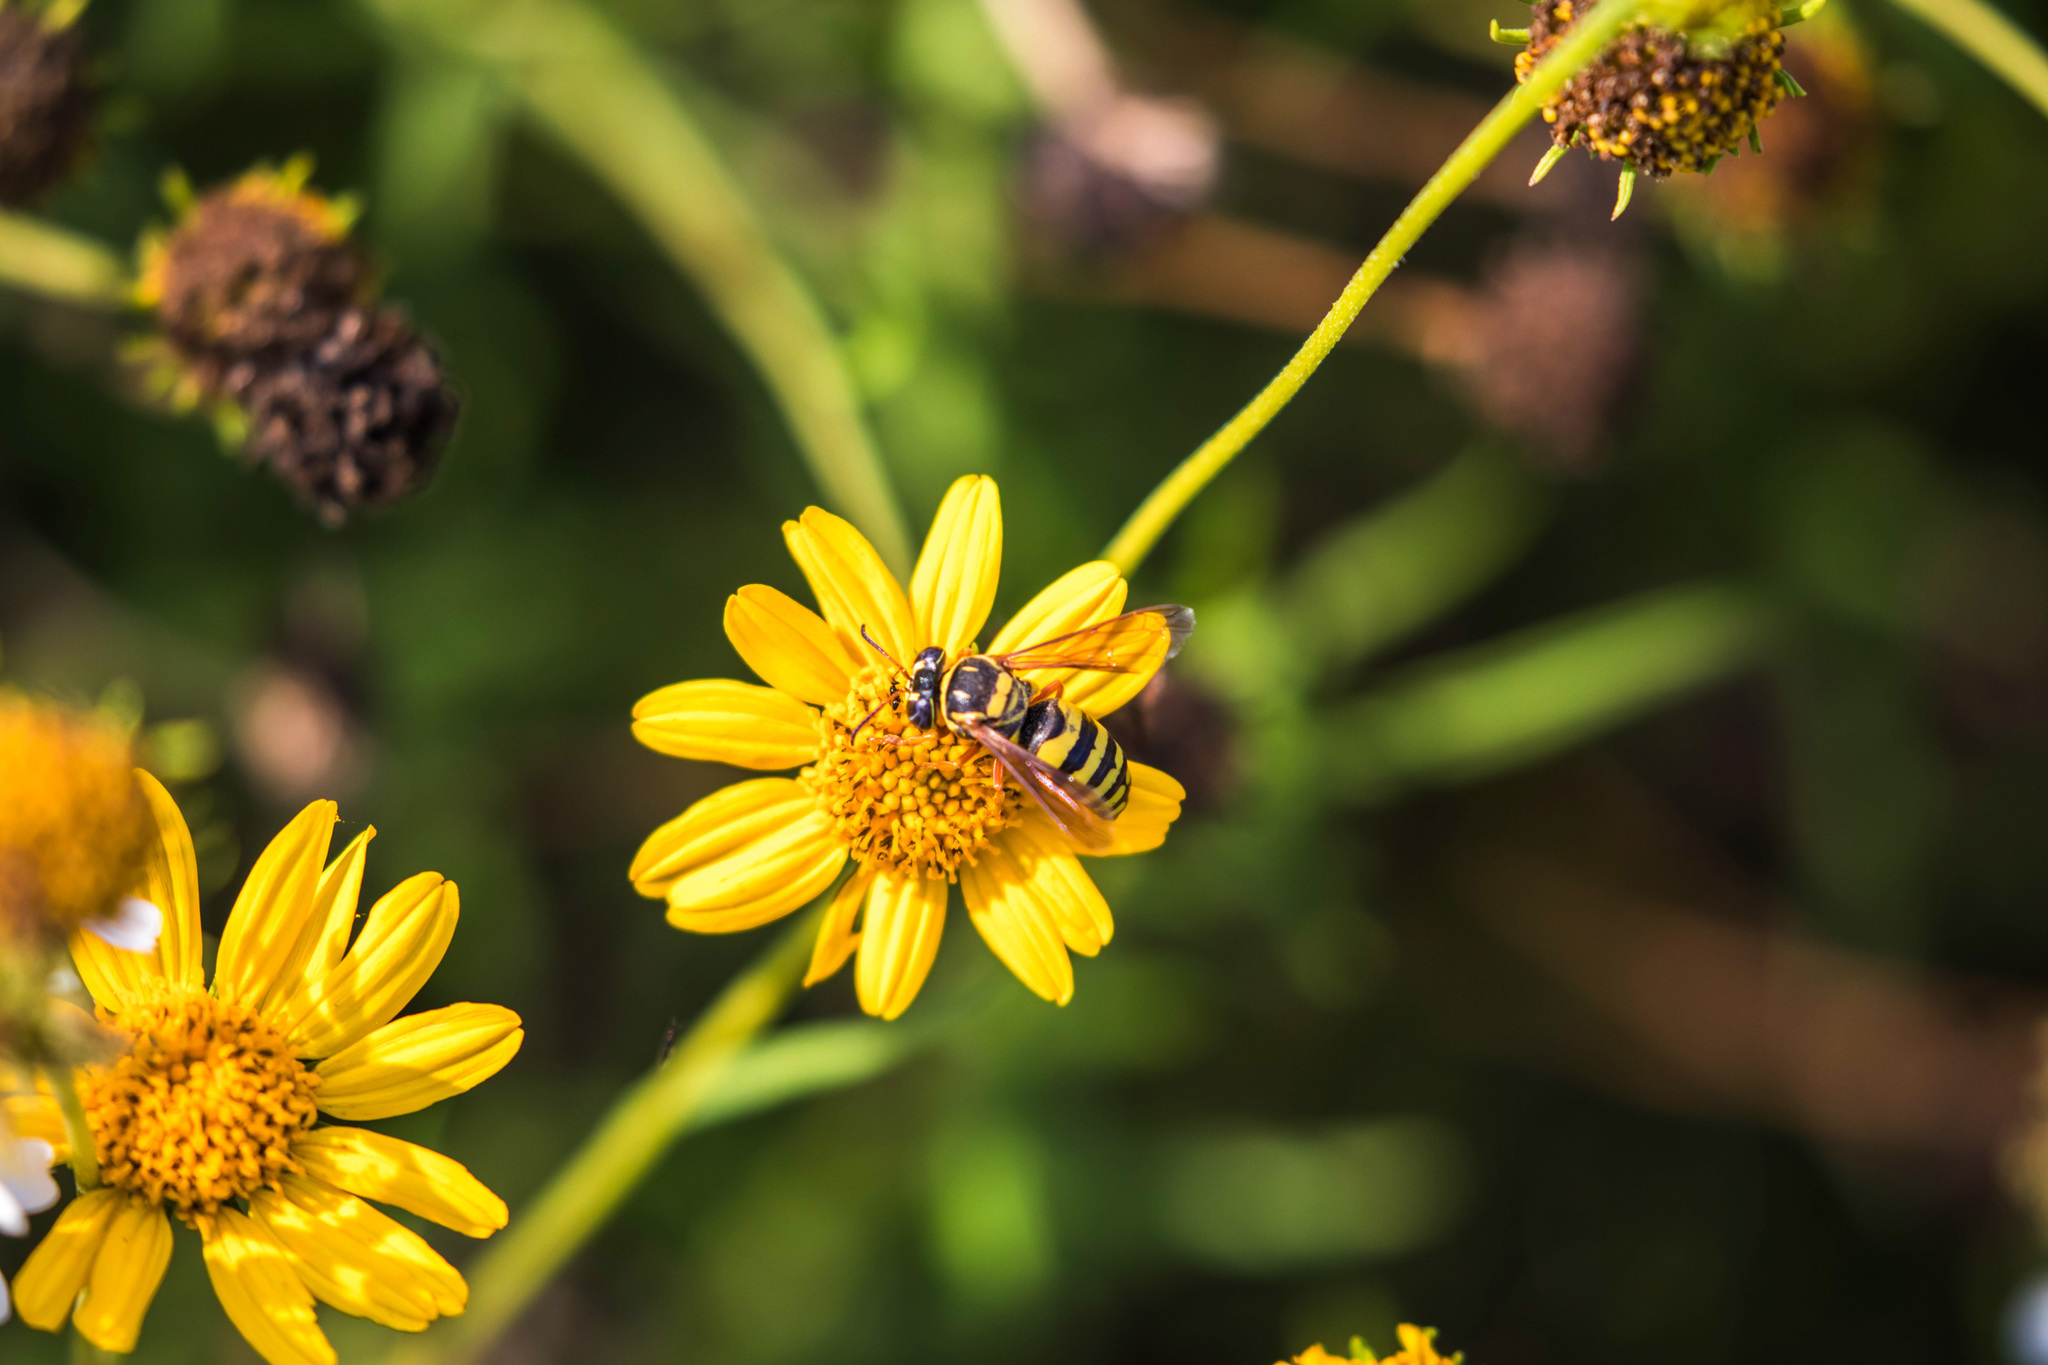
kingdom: Animalia
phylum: Arthropoda
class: Insecta
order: Hymenoptera
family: Crabronidae
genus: Bicyrtes
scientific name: Bicyrtes
